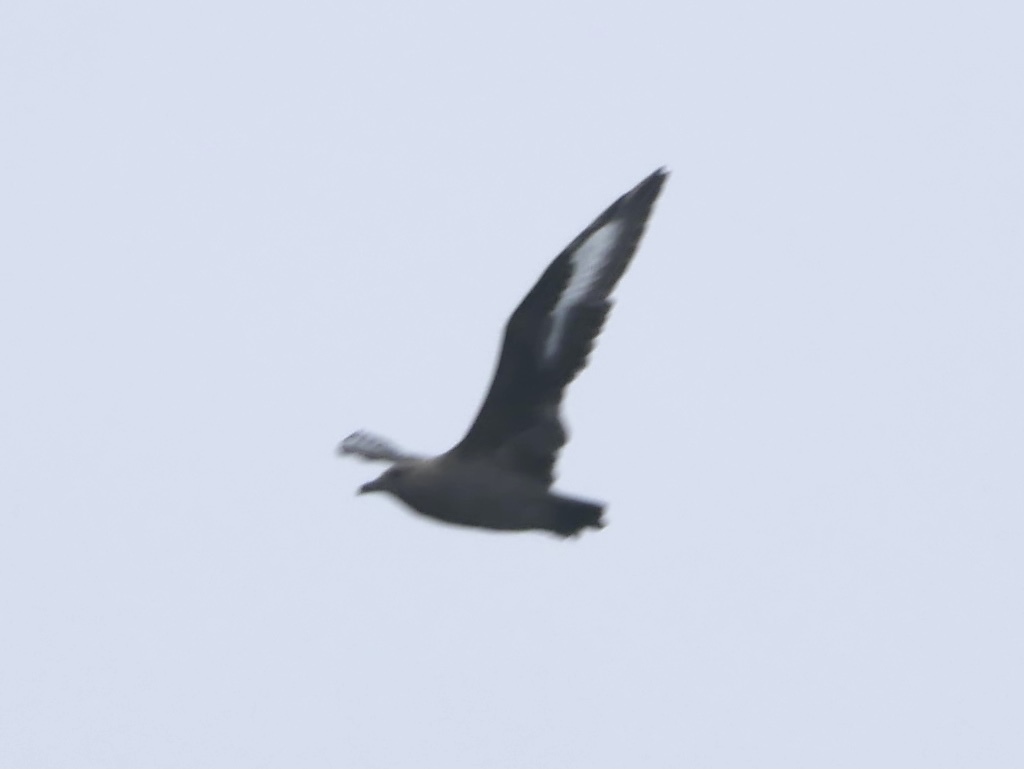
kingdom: Animalia
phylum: Chordata
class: Aves
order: Charadriiformes
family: Stercorariidae
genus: Stercorarius
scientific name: Stercorarius maccormicki
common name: South polar skua
